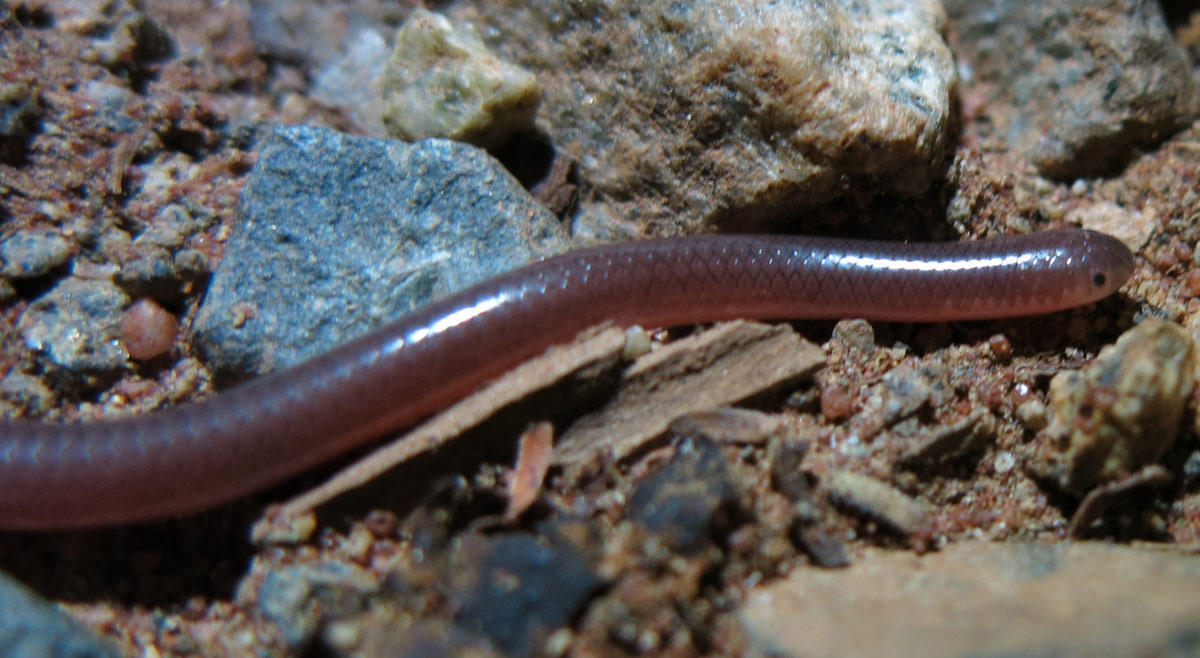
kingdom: Animalia
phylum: Chordata
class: Squamata
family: Leptotyphlopidae
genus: Myriopholis
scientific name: Myriopholis longicauda
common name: Long-tailed thread snake
